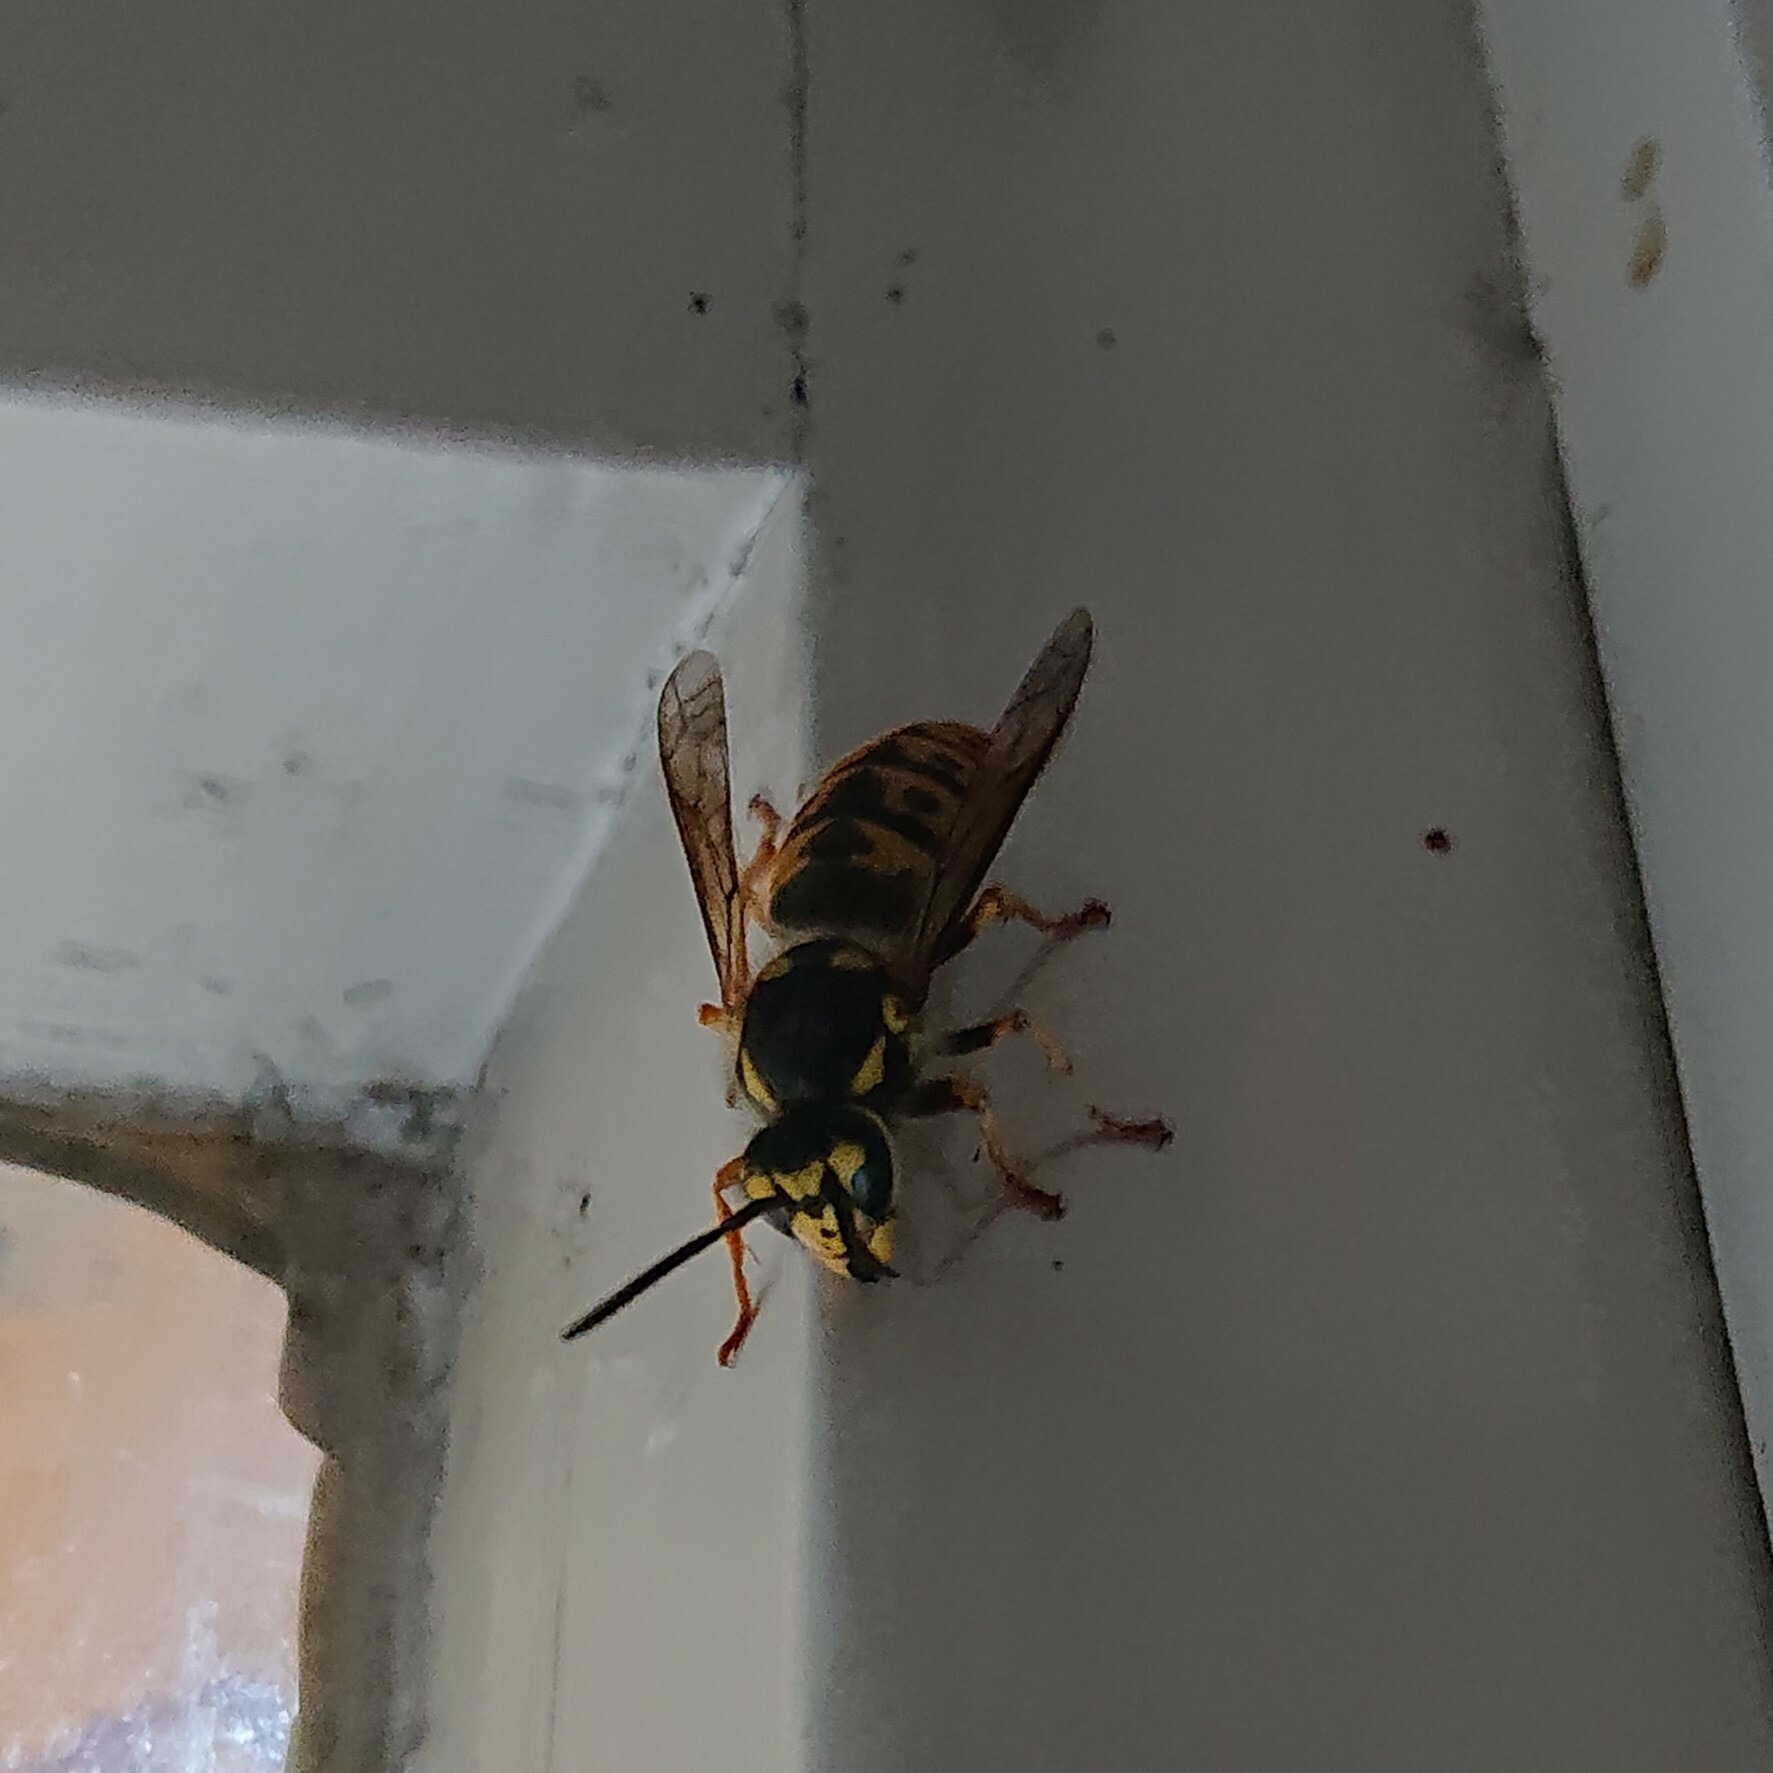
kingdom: Animalia
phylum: Arthropoda
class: Insecta
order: Hymenoptera
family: Vespidae
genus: Vespula
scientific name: Vespula germanica
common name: German wasp
